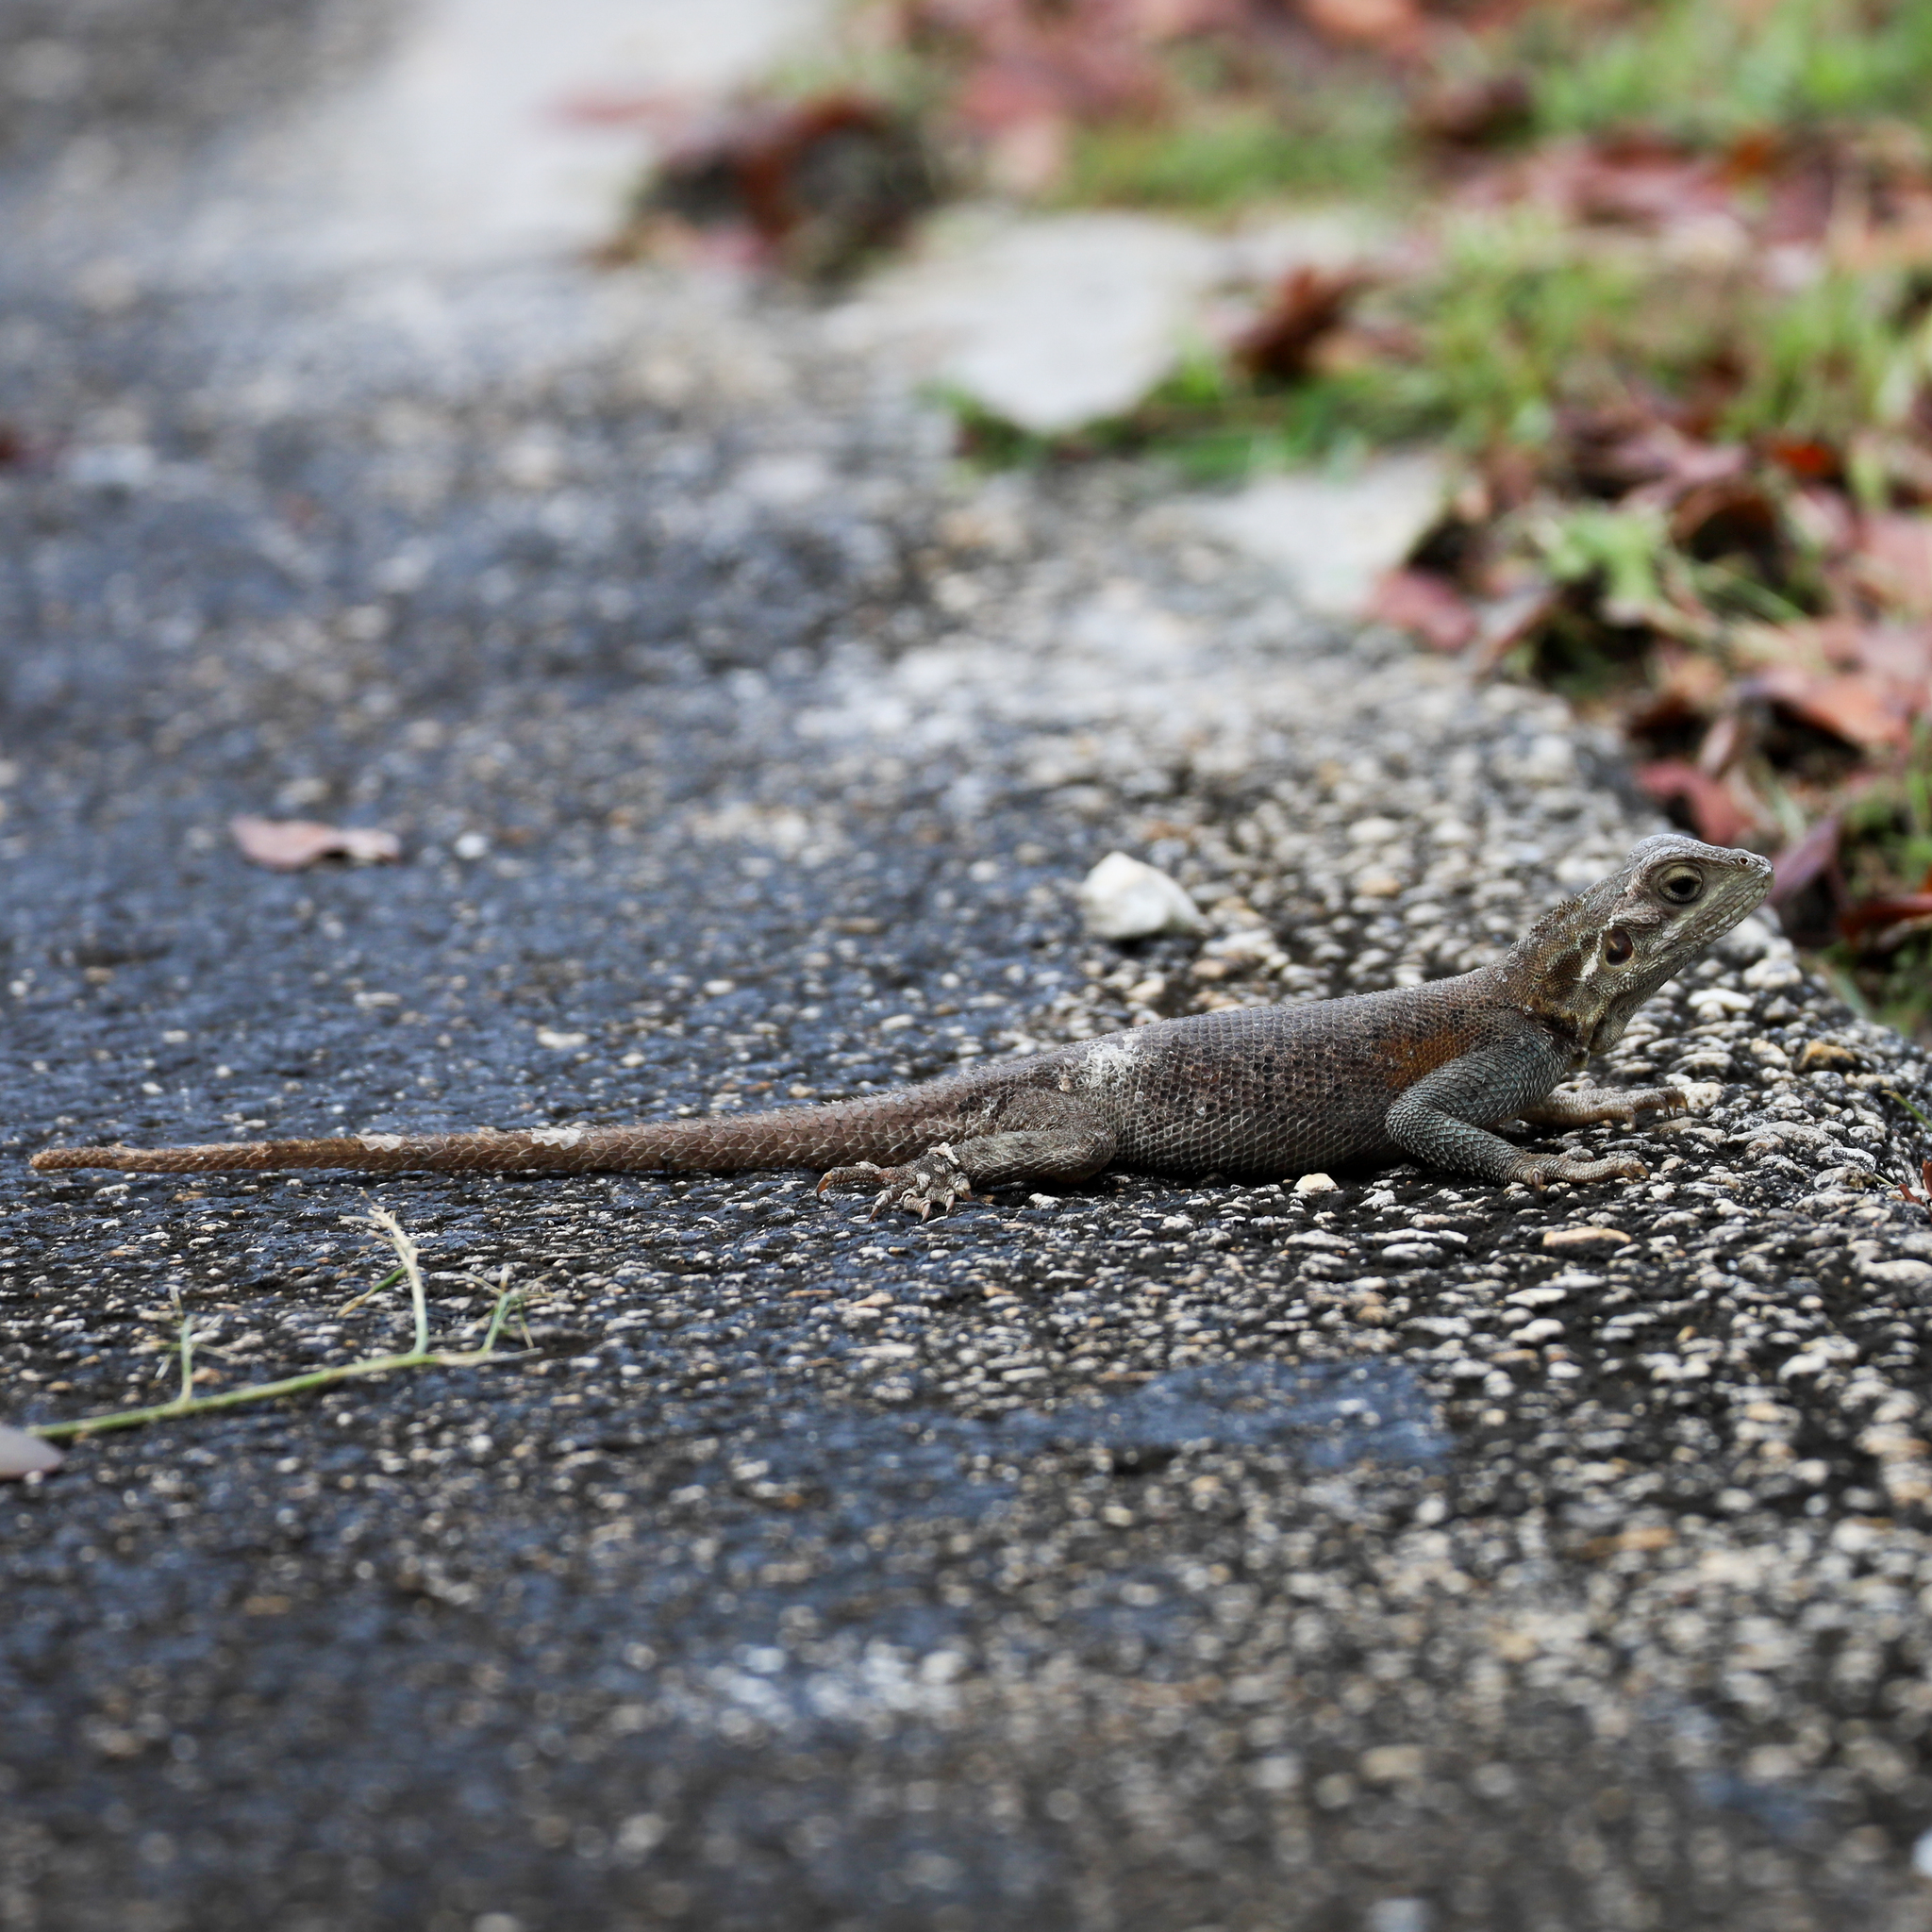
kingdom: Animalia
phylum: Chordata
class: Squamata
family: Agamidae
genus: Agama
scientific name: Agama picticauda
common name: Red-headed agama
